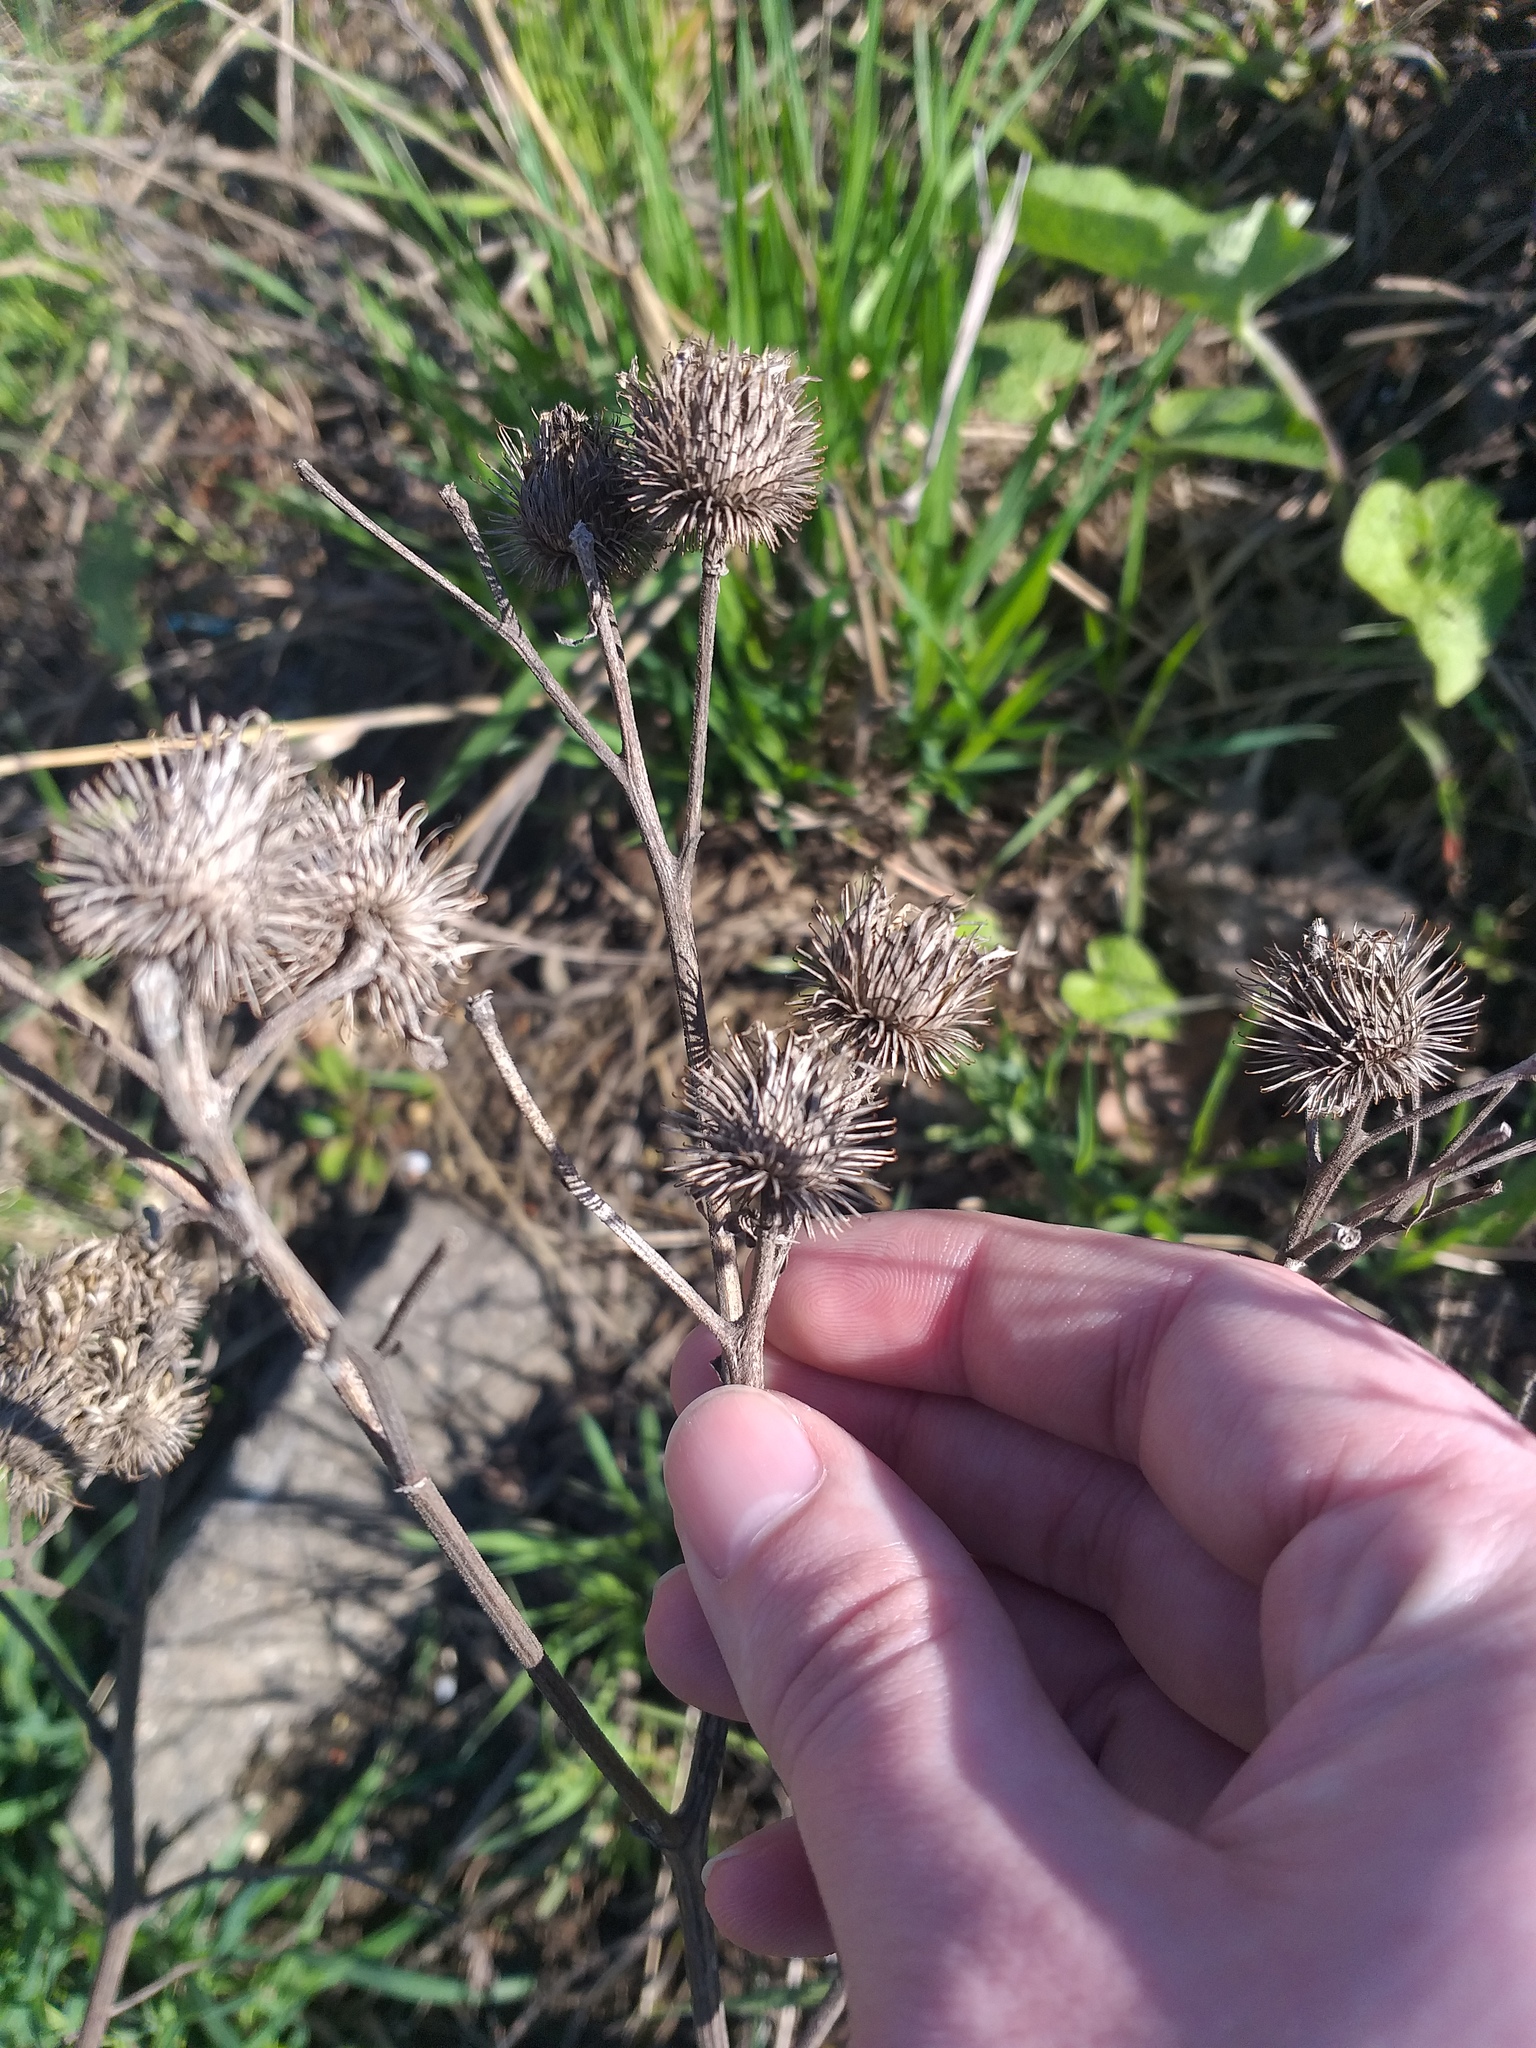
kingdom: Plantae
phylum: Tracheophyta
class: Magnoliopsida
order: Asterales
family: Asteraceae
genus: Arctium
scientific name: Arctium tomentosum
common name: Woolly burdock
